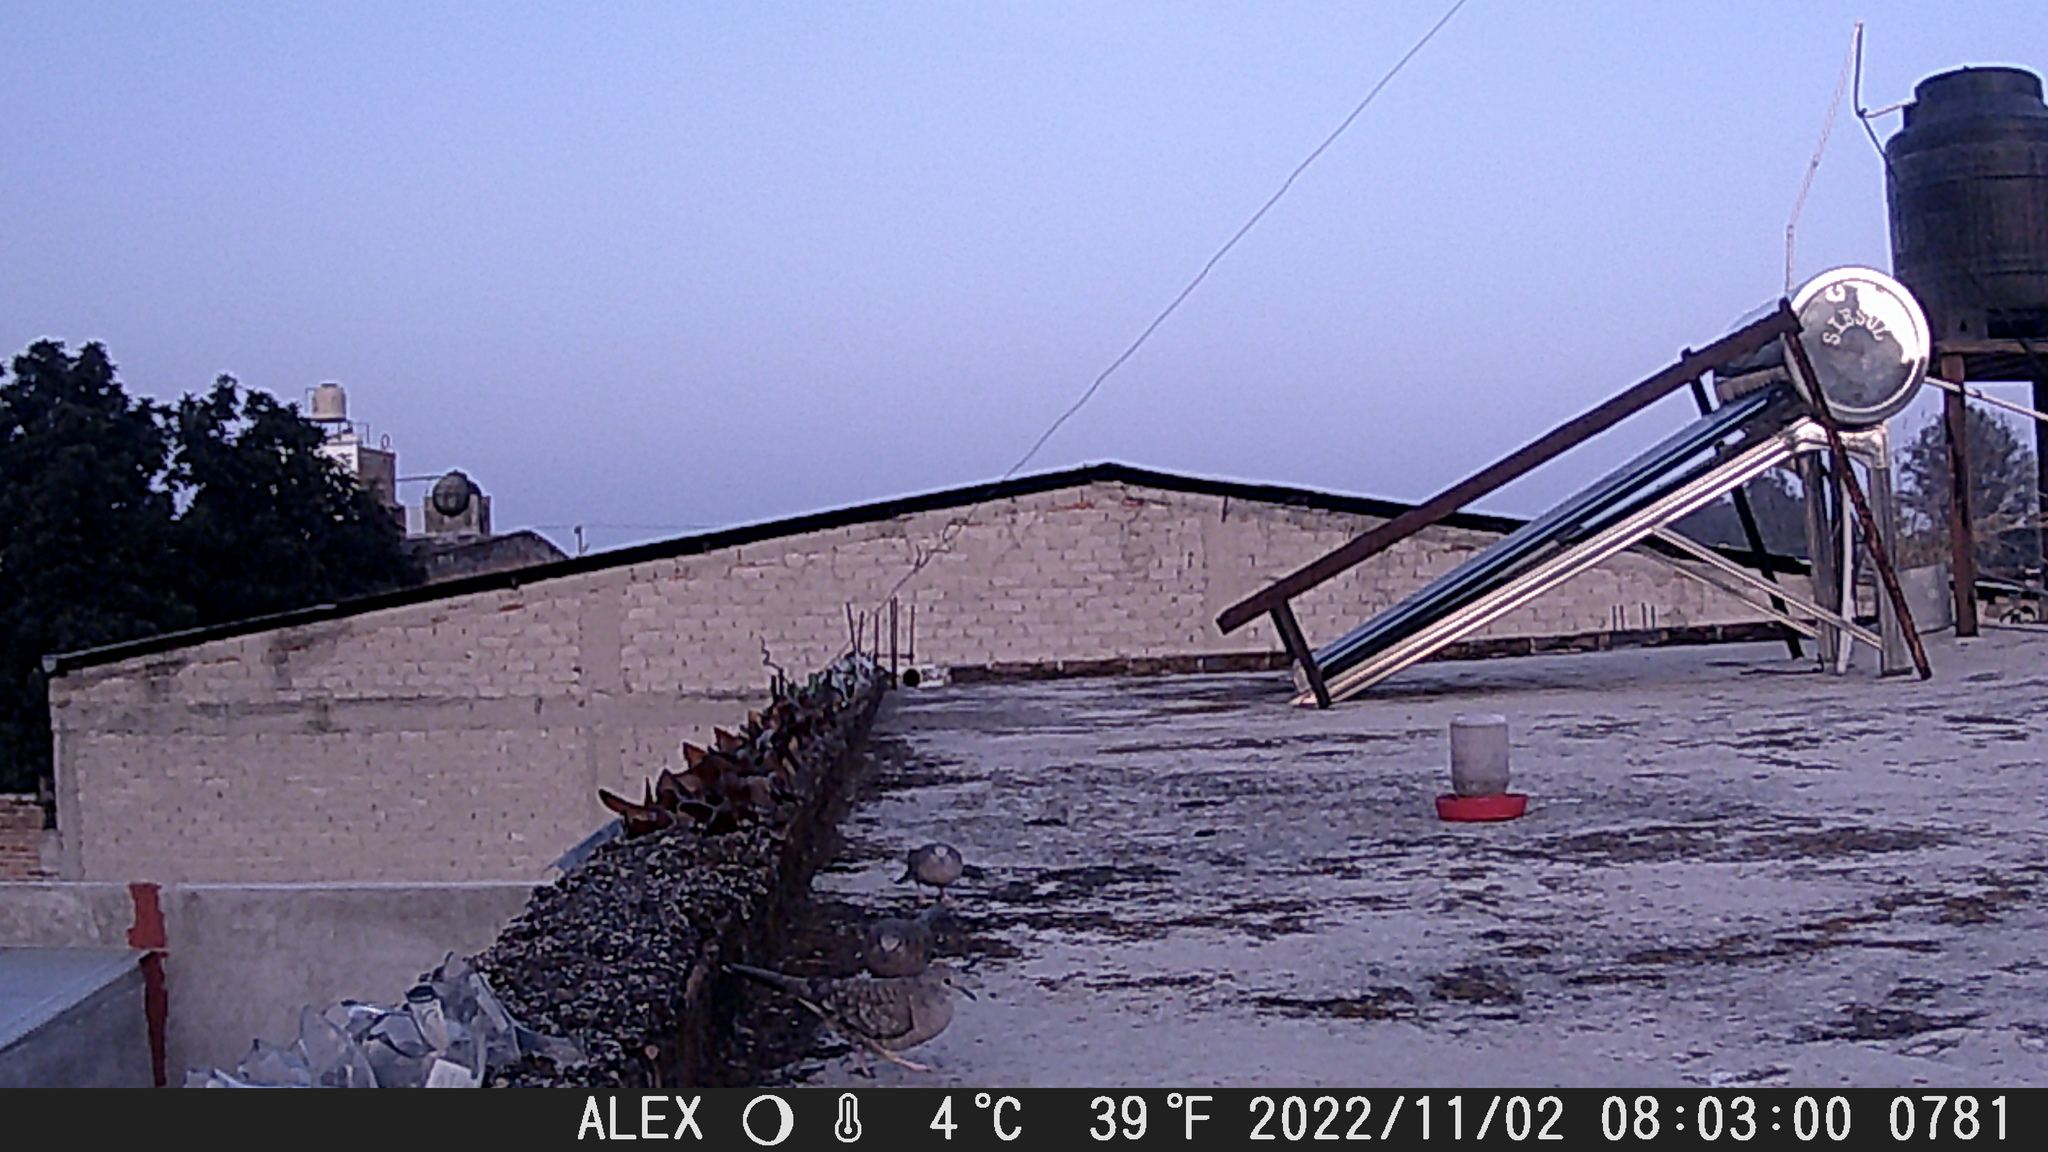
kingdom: Animalia
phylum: Chordata
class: Aves
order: Columbiformes
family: Columbidae
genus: Columbina
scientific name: Columbina inca
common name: Inca dove
